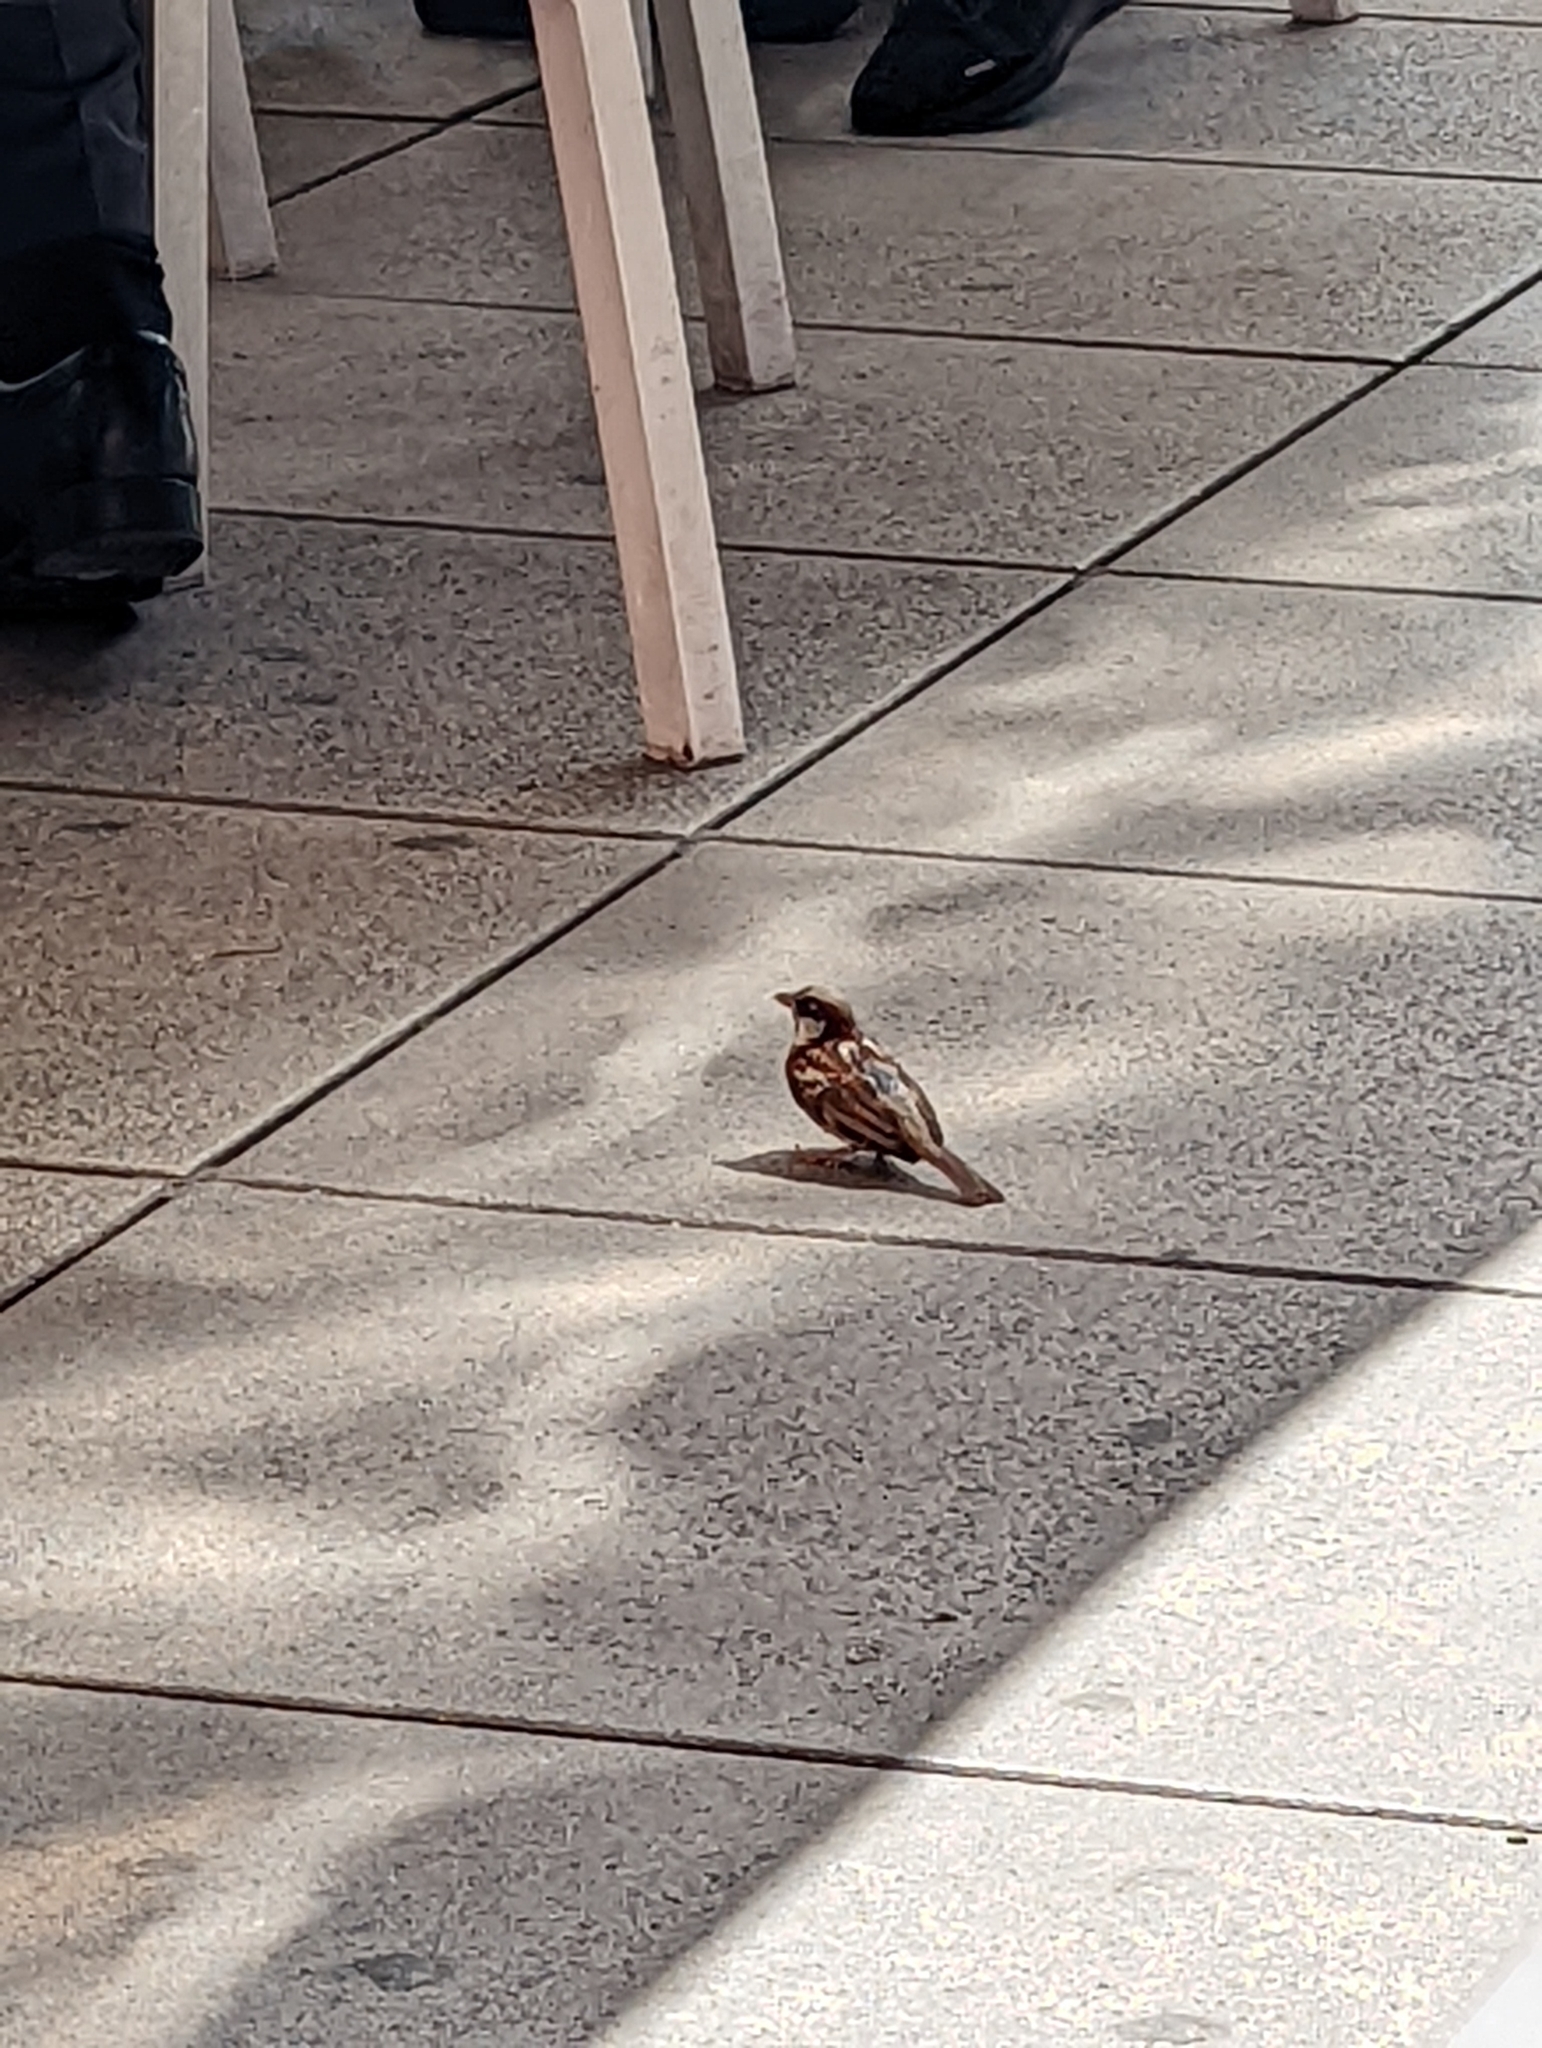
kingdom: Animalia
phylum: Chordata
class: Aves
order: Passeriformes
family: Passeridae
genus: Passer
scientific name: Passer domesticus
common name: House sparrow
